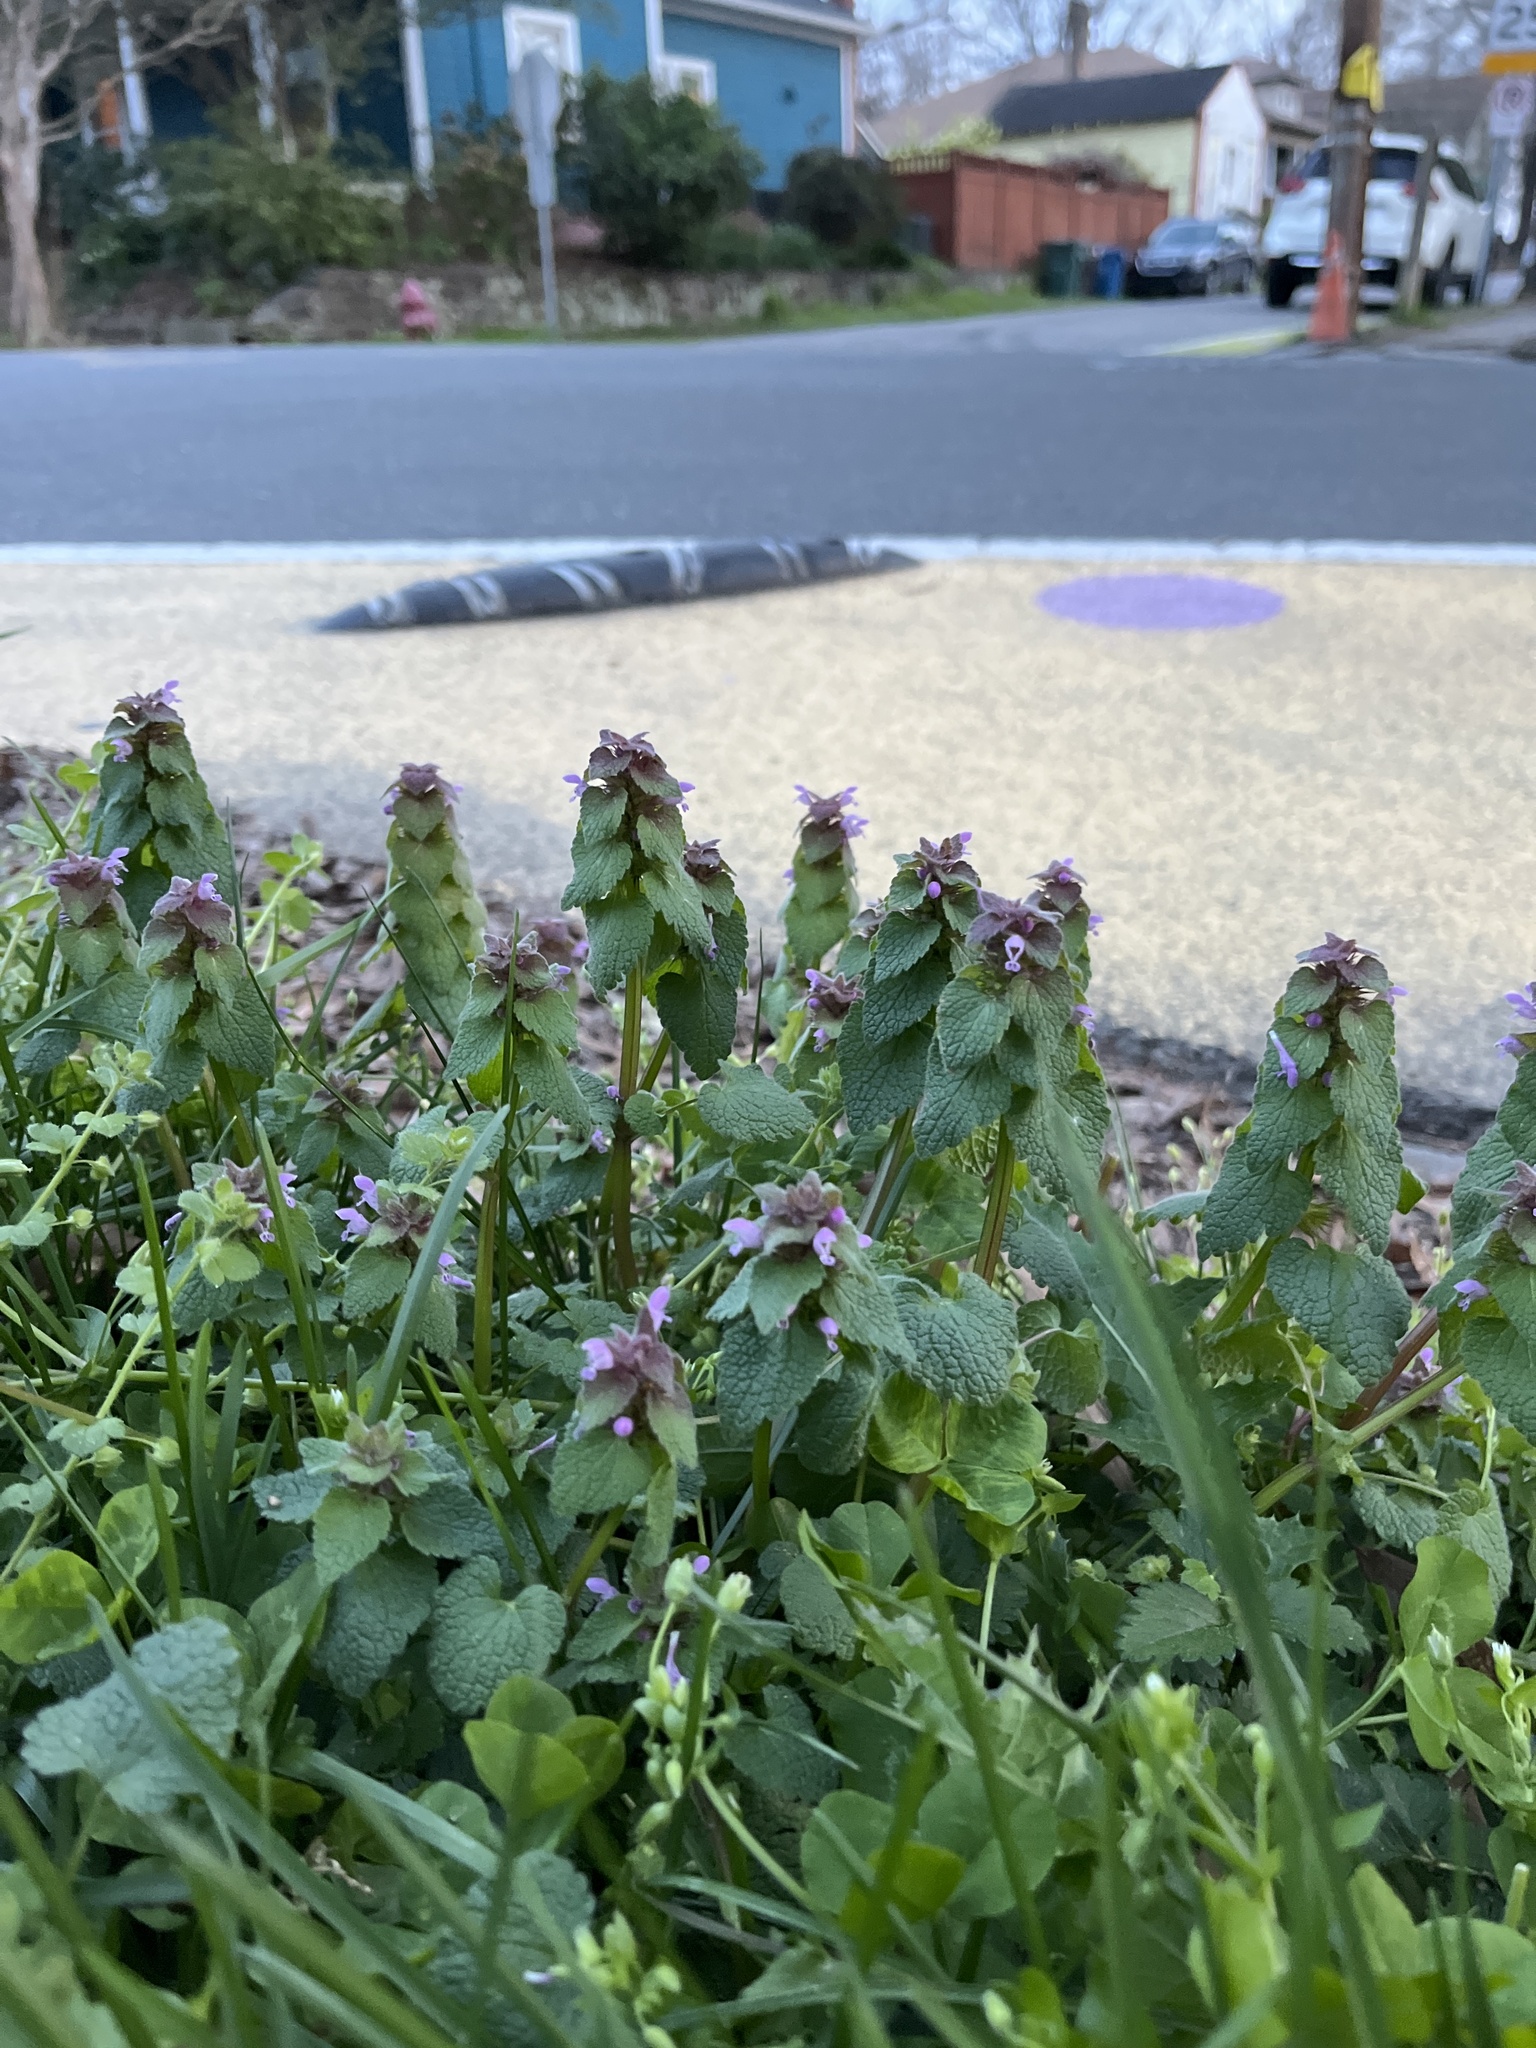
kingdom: Plantae
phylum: Tracheophyta
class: Magnoliopsida
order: Lamiales
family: Lamiaceae
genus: Lamium
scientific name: Lamium purpureum
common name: Red dead-nettle
